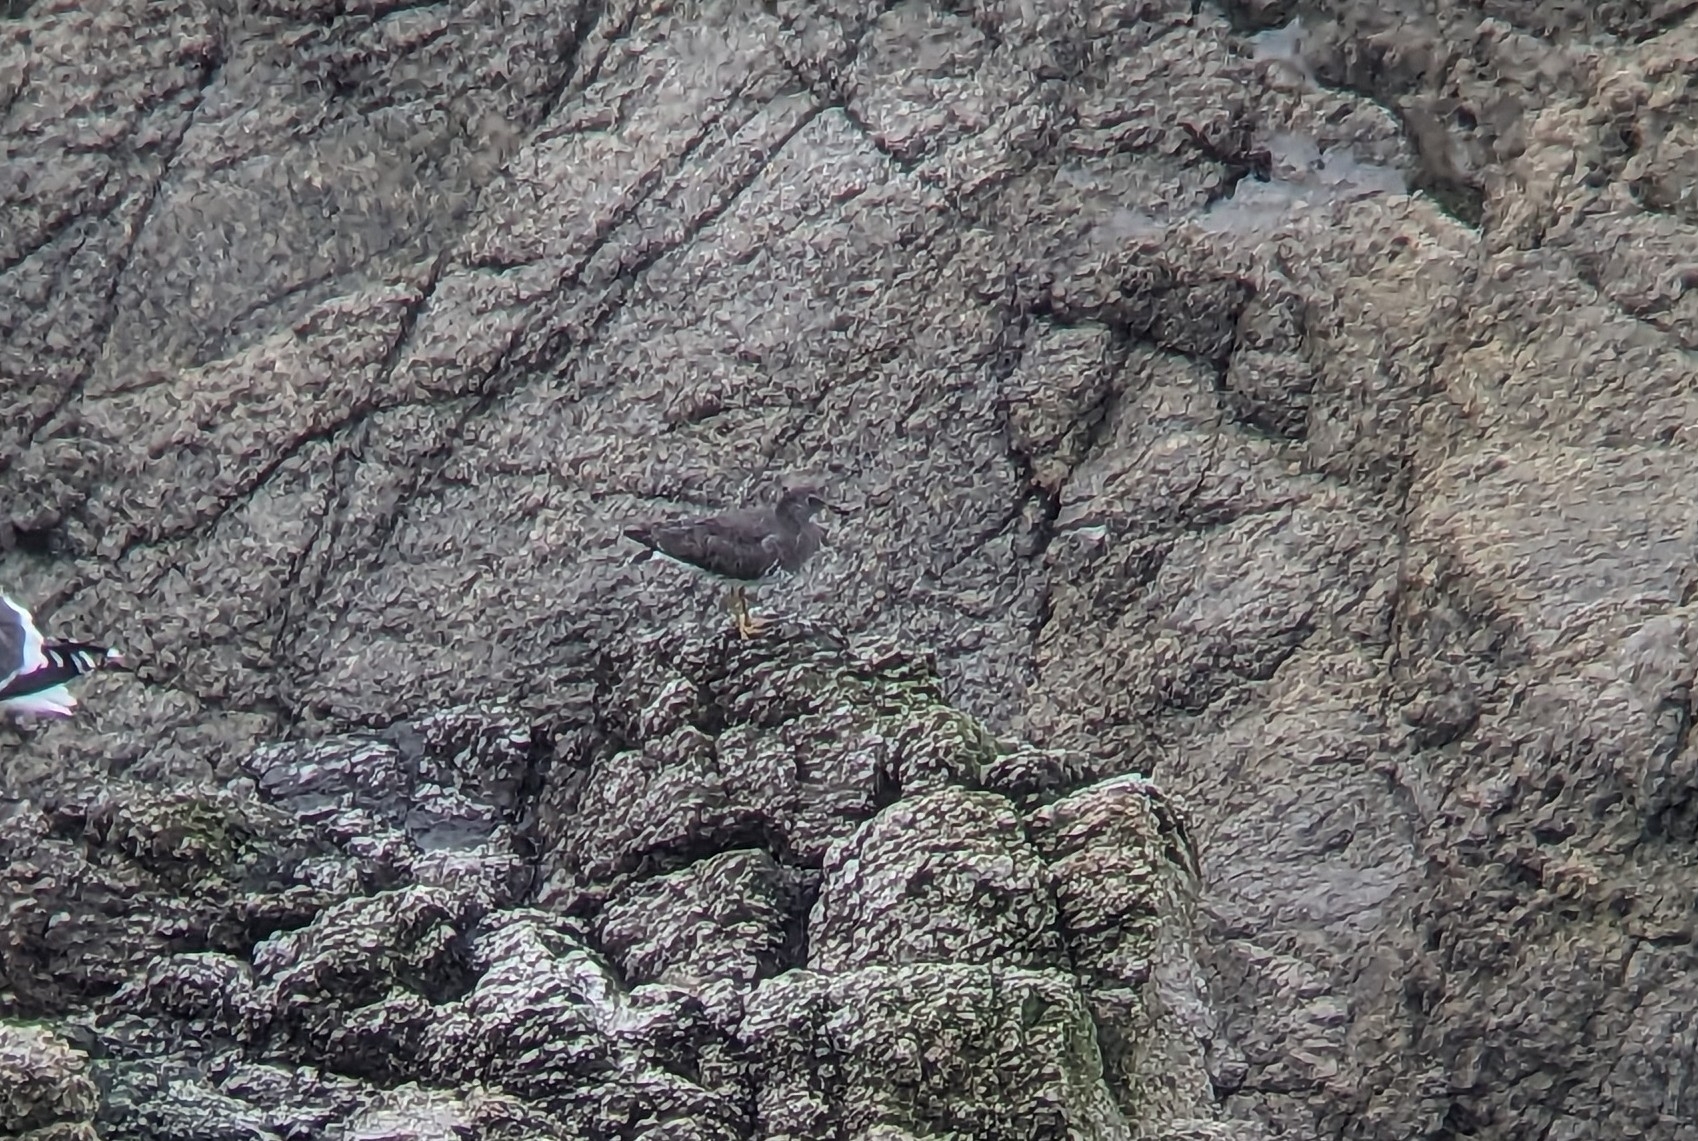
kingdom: Animalia
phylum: Chordata
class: Aves
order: Charadriiformes
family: Scolopacidae
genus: Calidris
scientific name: Calidris virgata
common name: Surfbird
